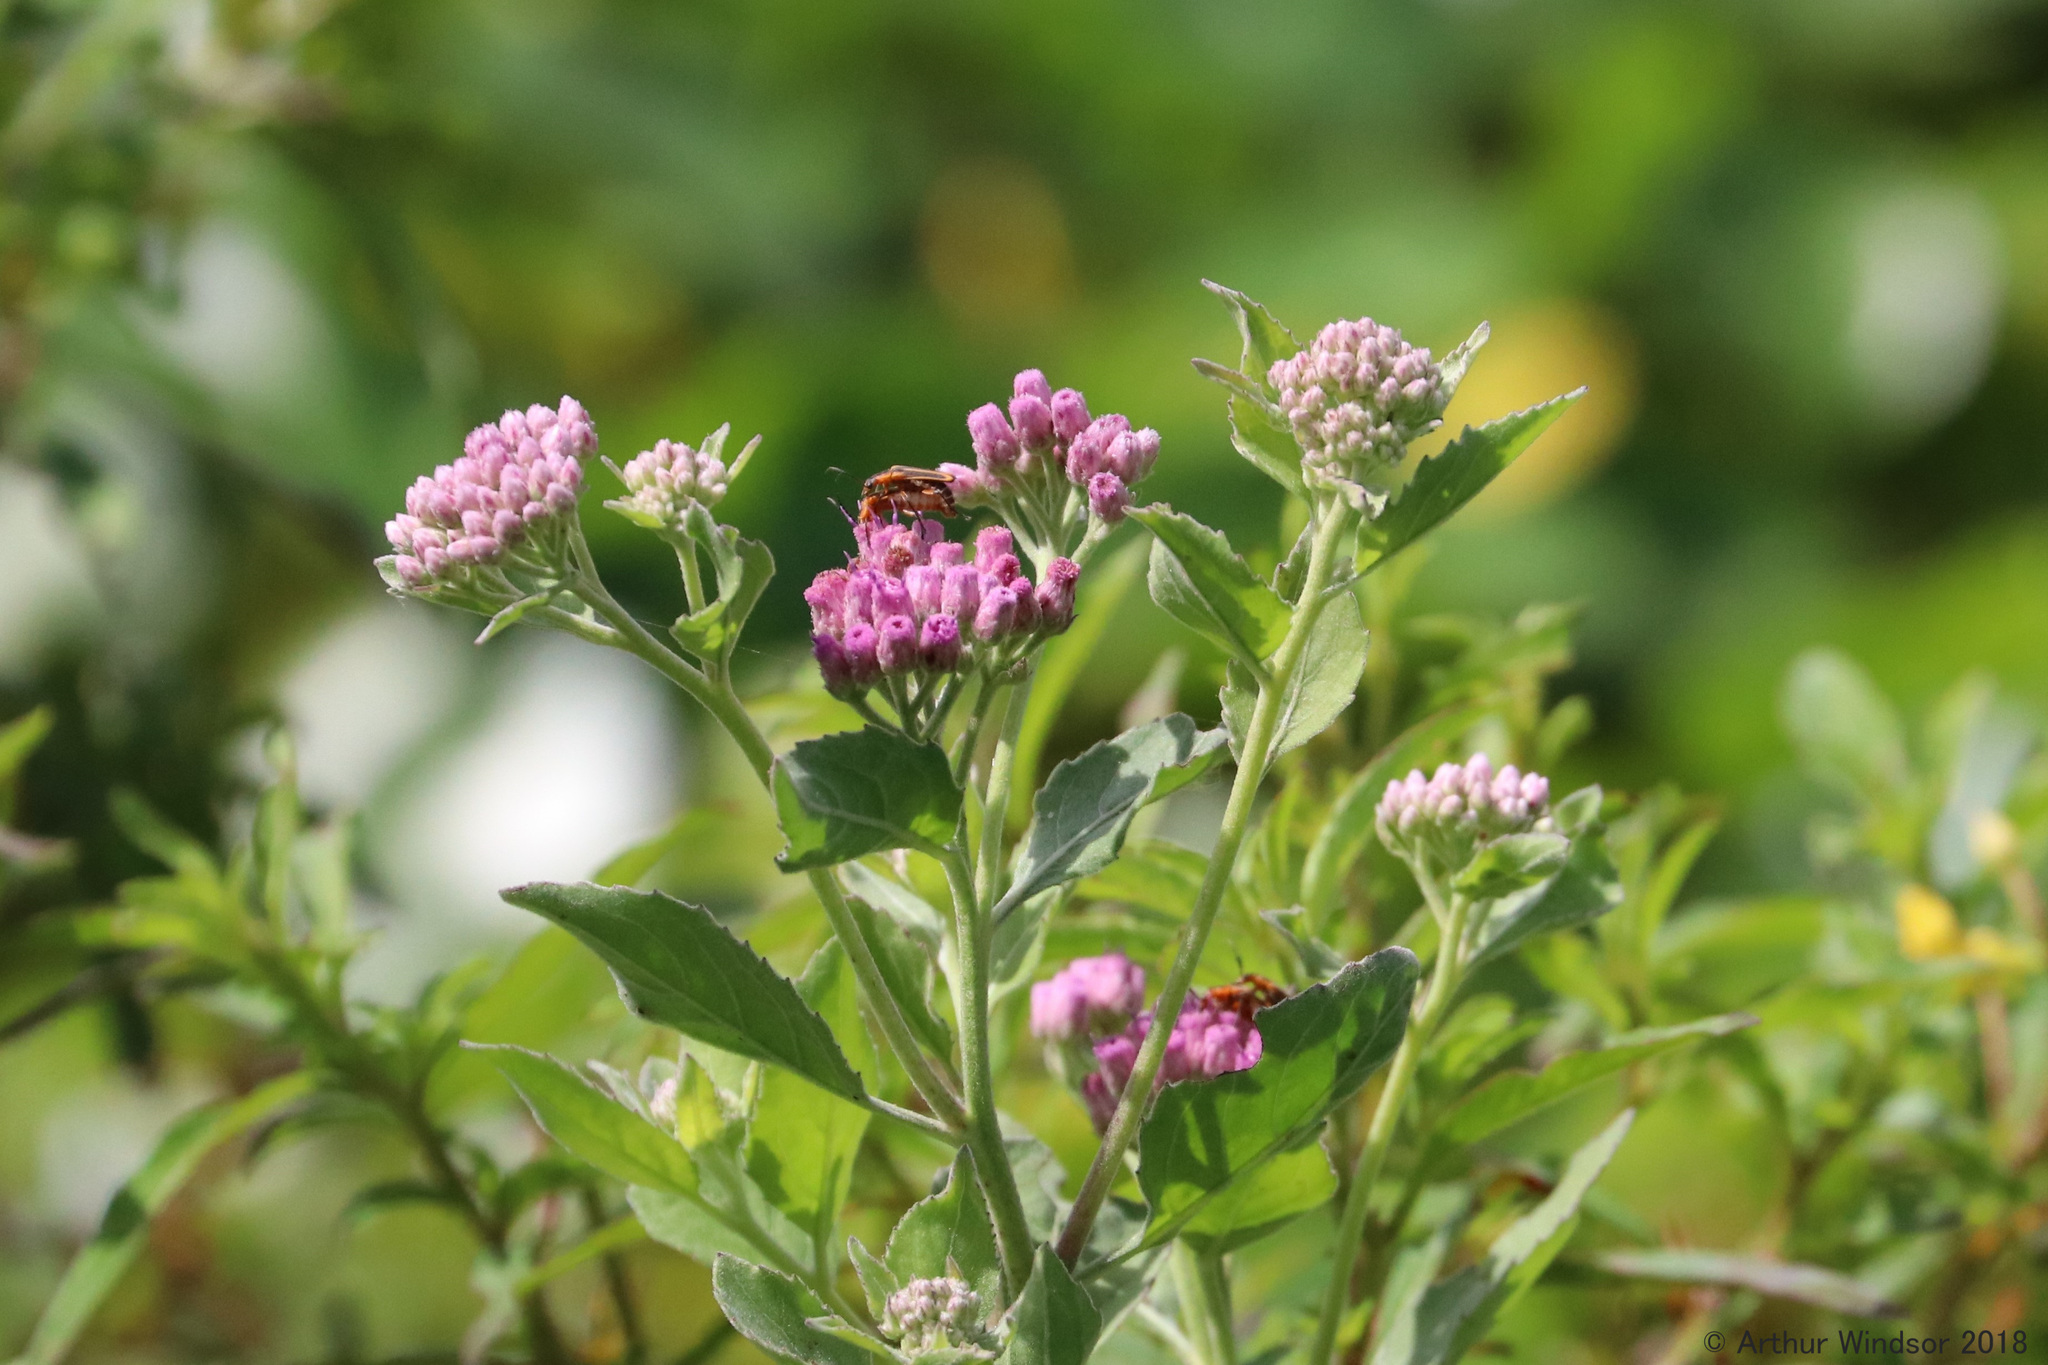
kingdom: Animalia
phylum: Arthropoda
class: Insecta
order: Coleoptera
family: Cantharidae
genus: Chauliognathus
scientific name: Chauliognathus marginatus
